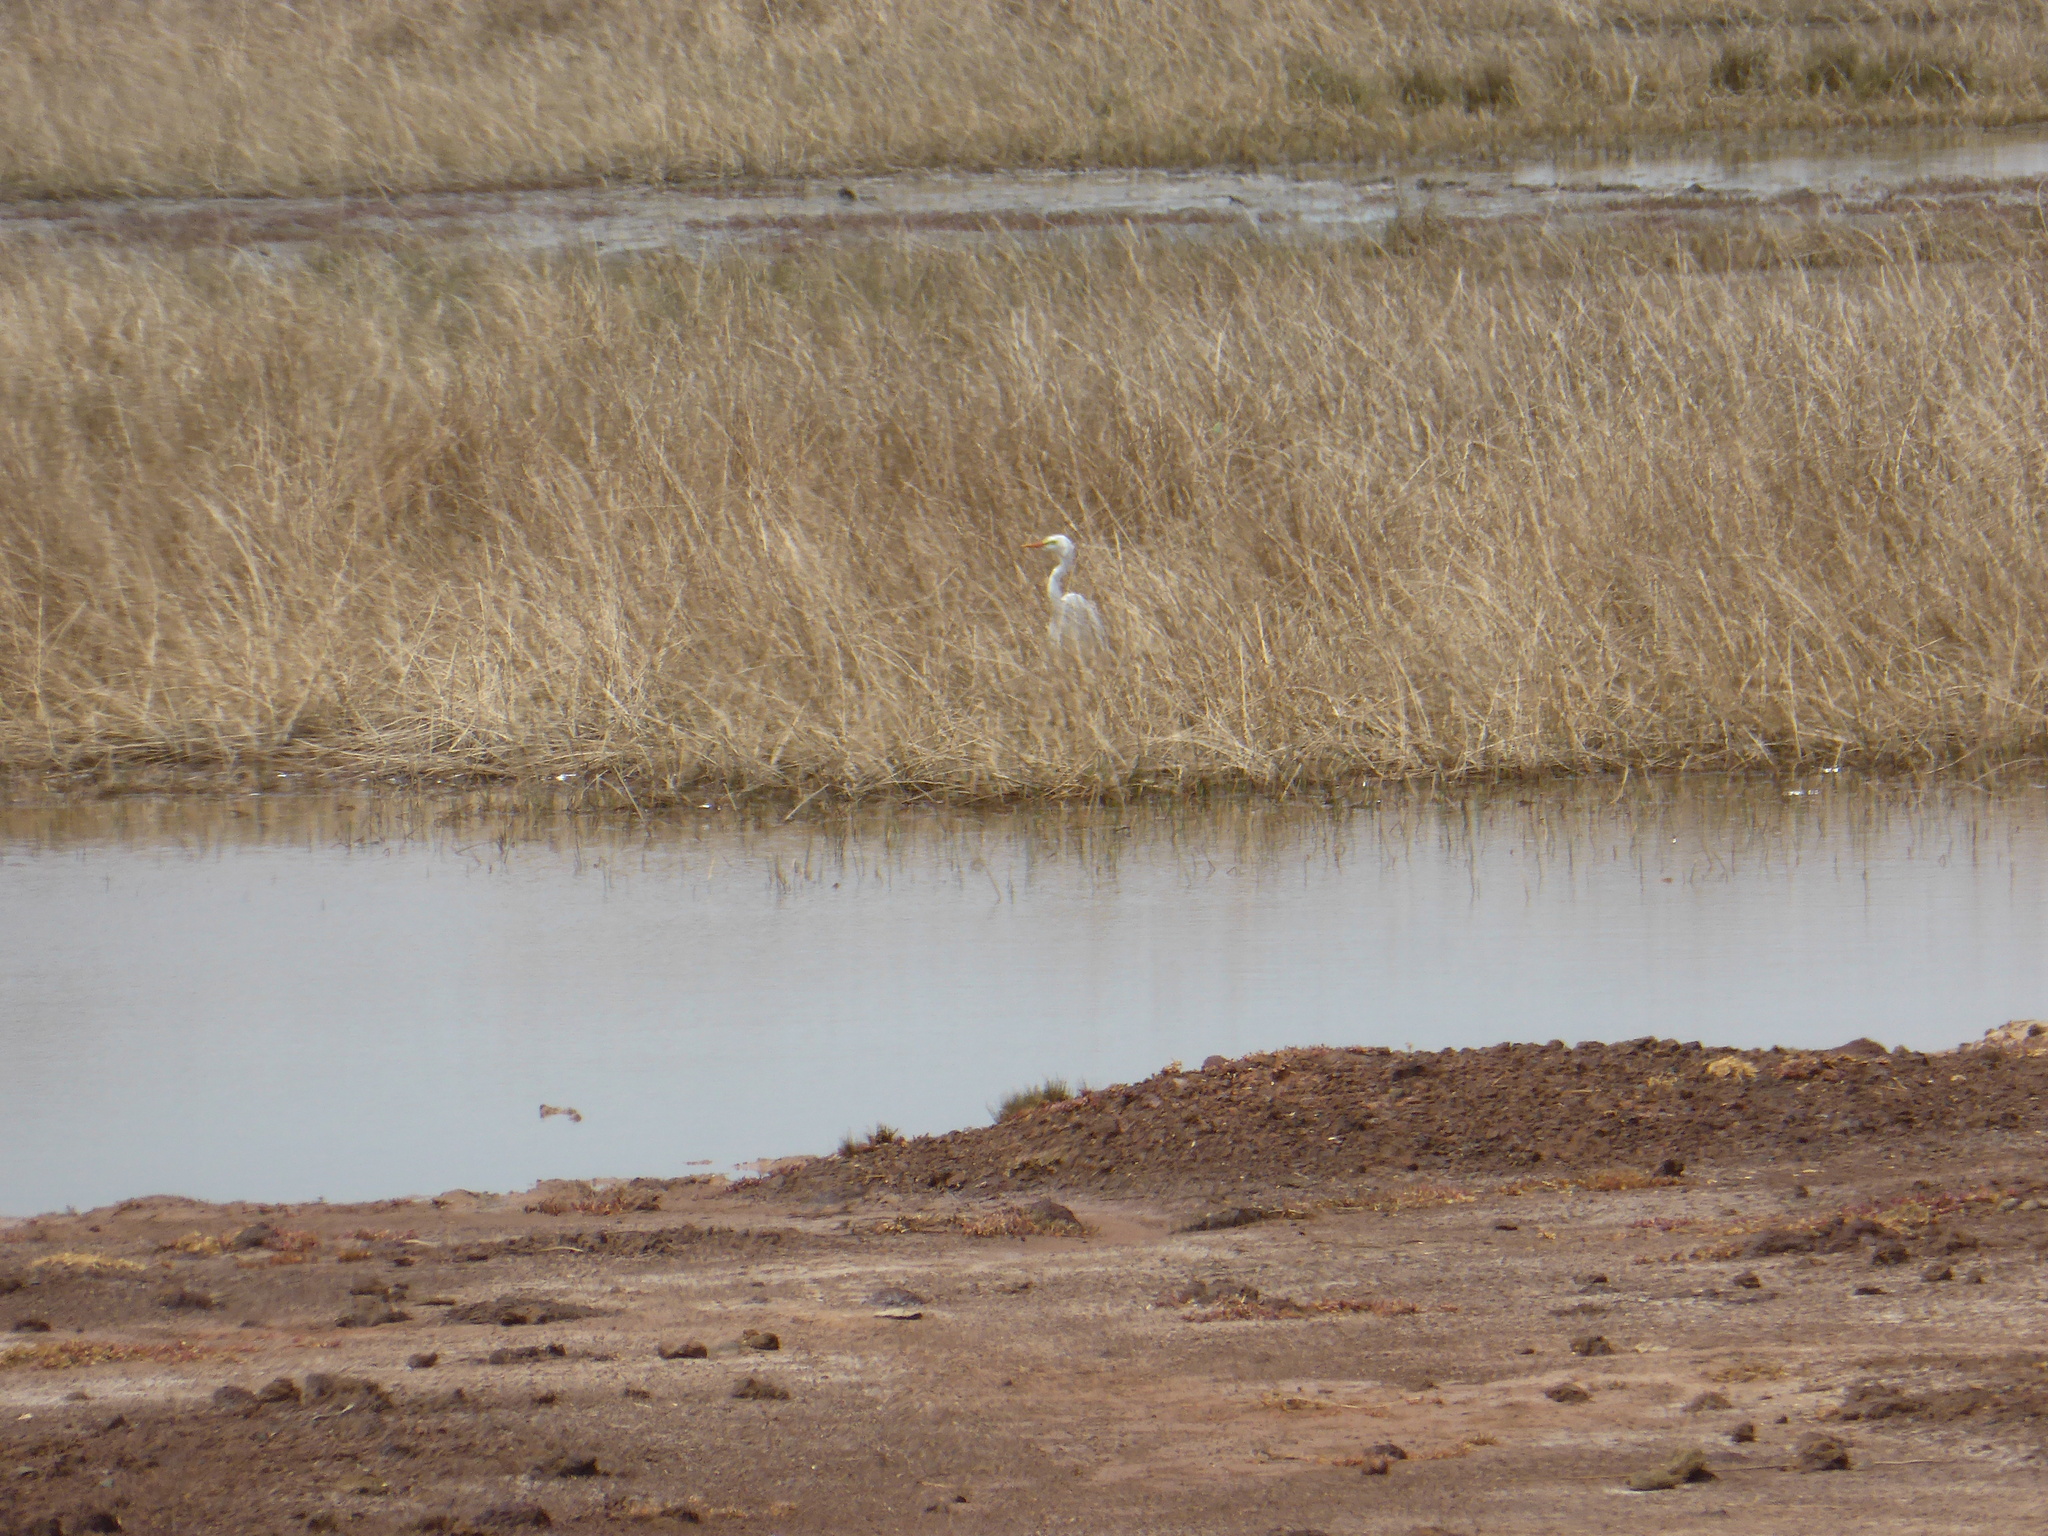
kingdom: Animalia
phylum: Chordata
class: Aves
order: Pelecaniformes
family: Ardeidae
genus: Egretta
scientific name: Egretta intermedia
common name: Intermediate egret
